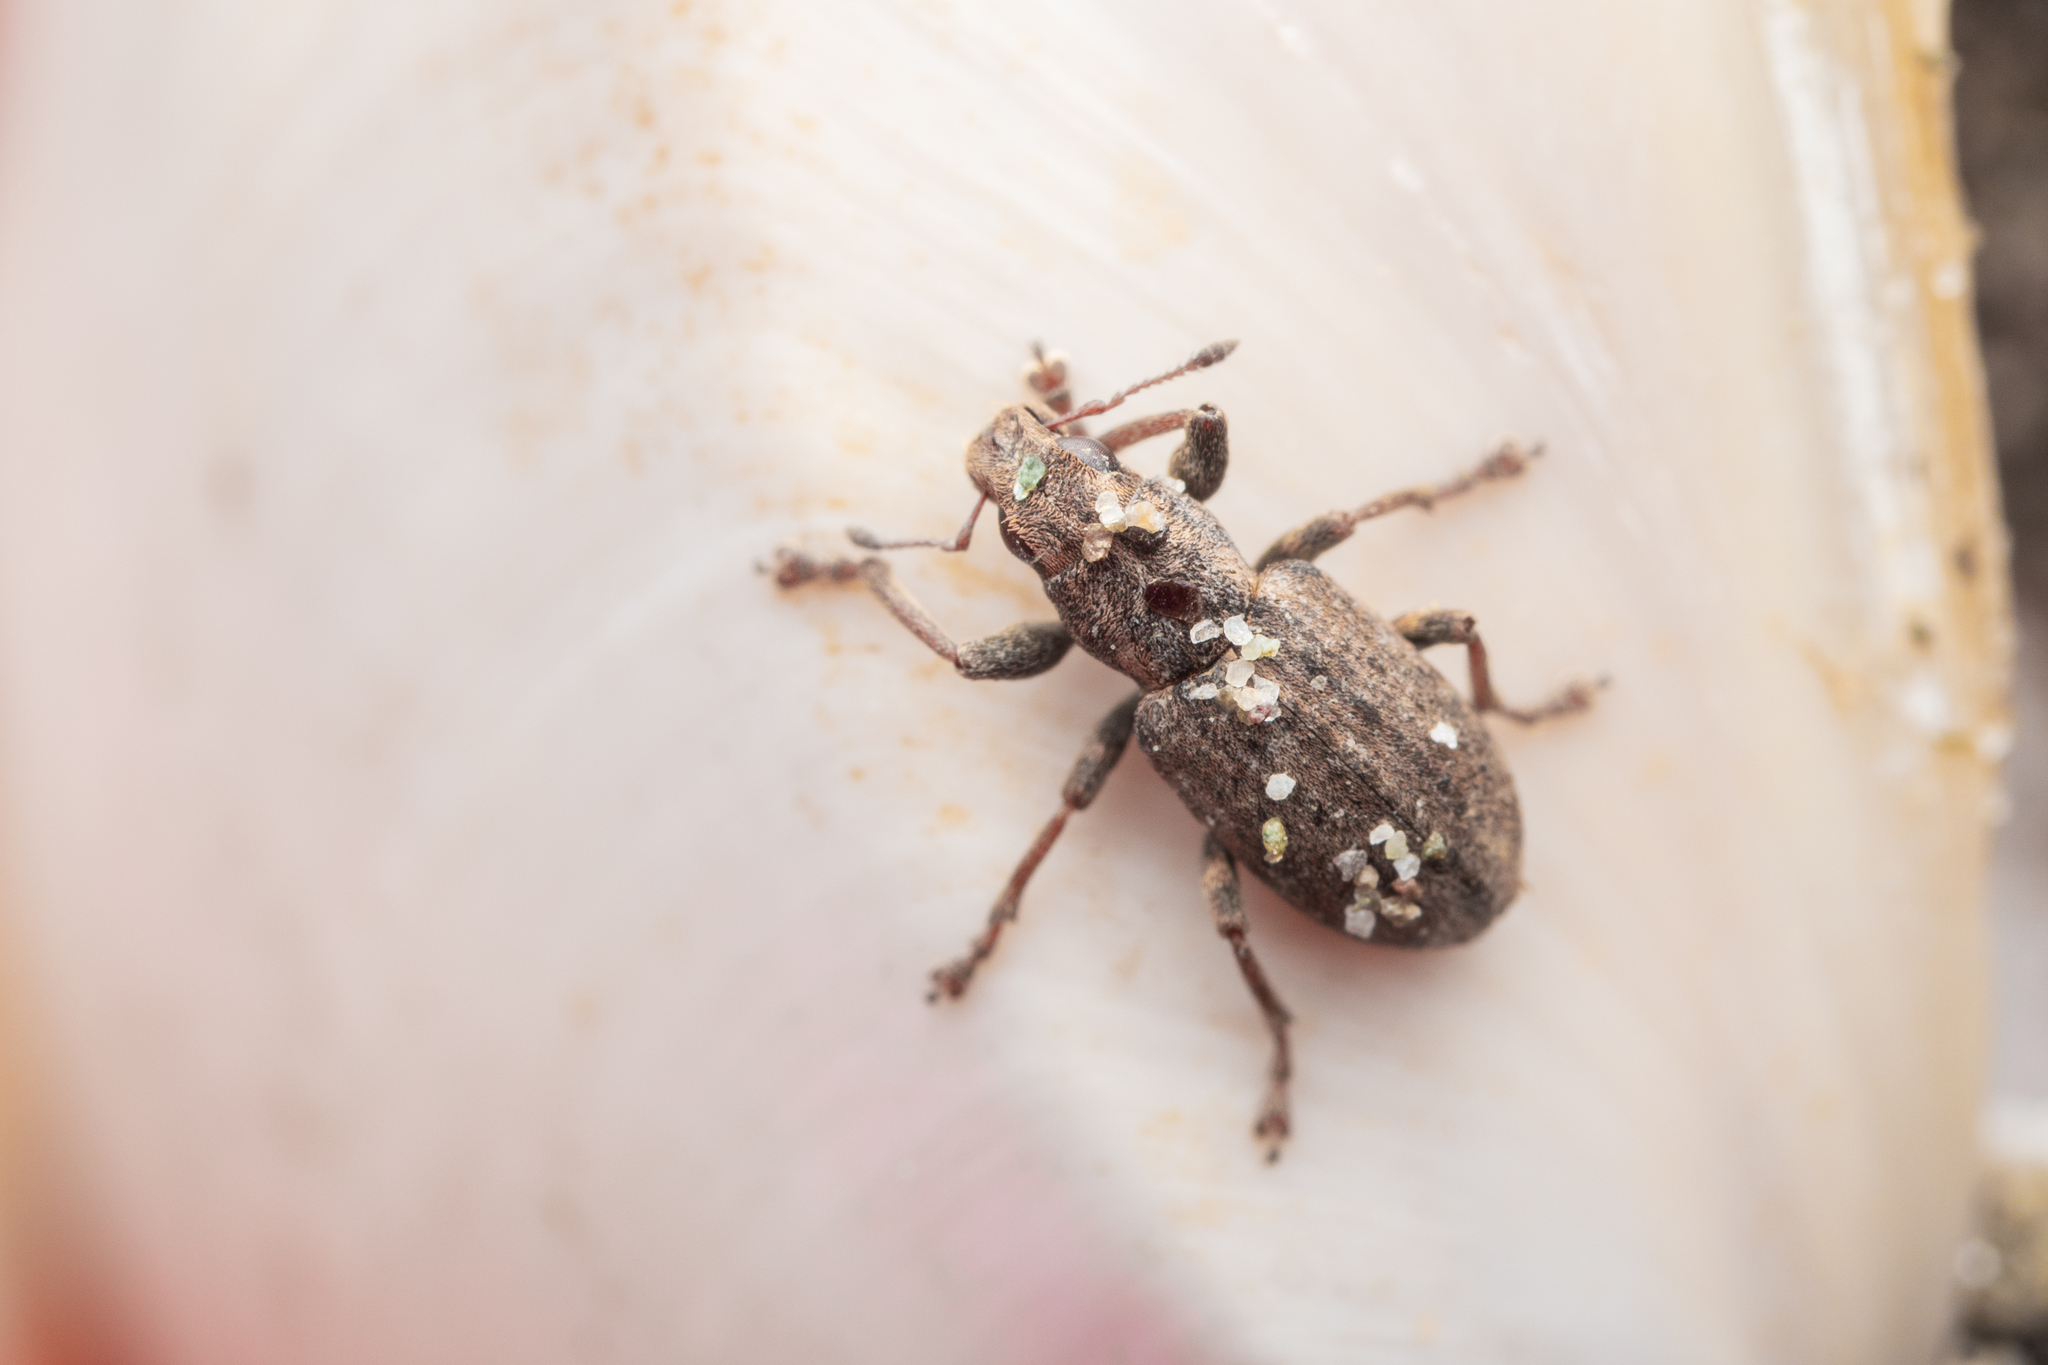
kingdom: Animalia
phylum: Arthropoda
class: Insecta
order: Coleoptera
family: Curculionidae
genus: Sitona
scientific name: Sitona obsoletus
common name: Weevil
